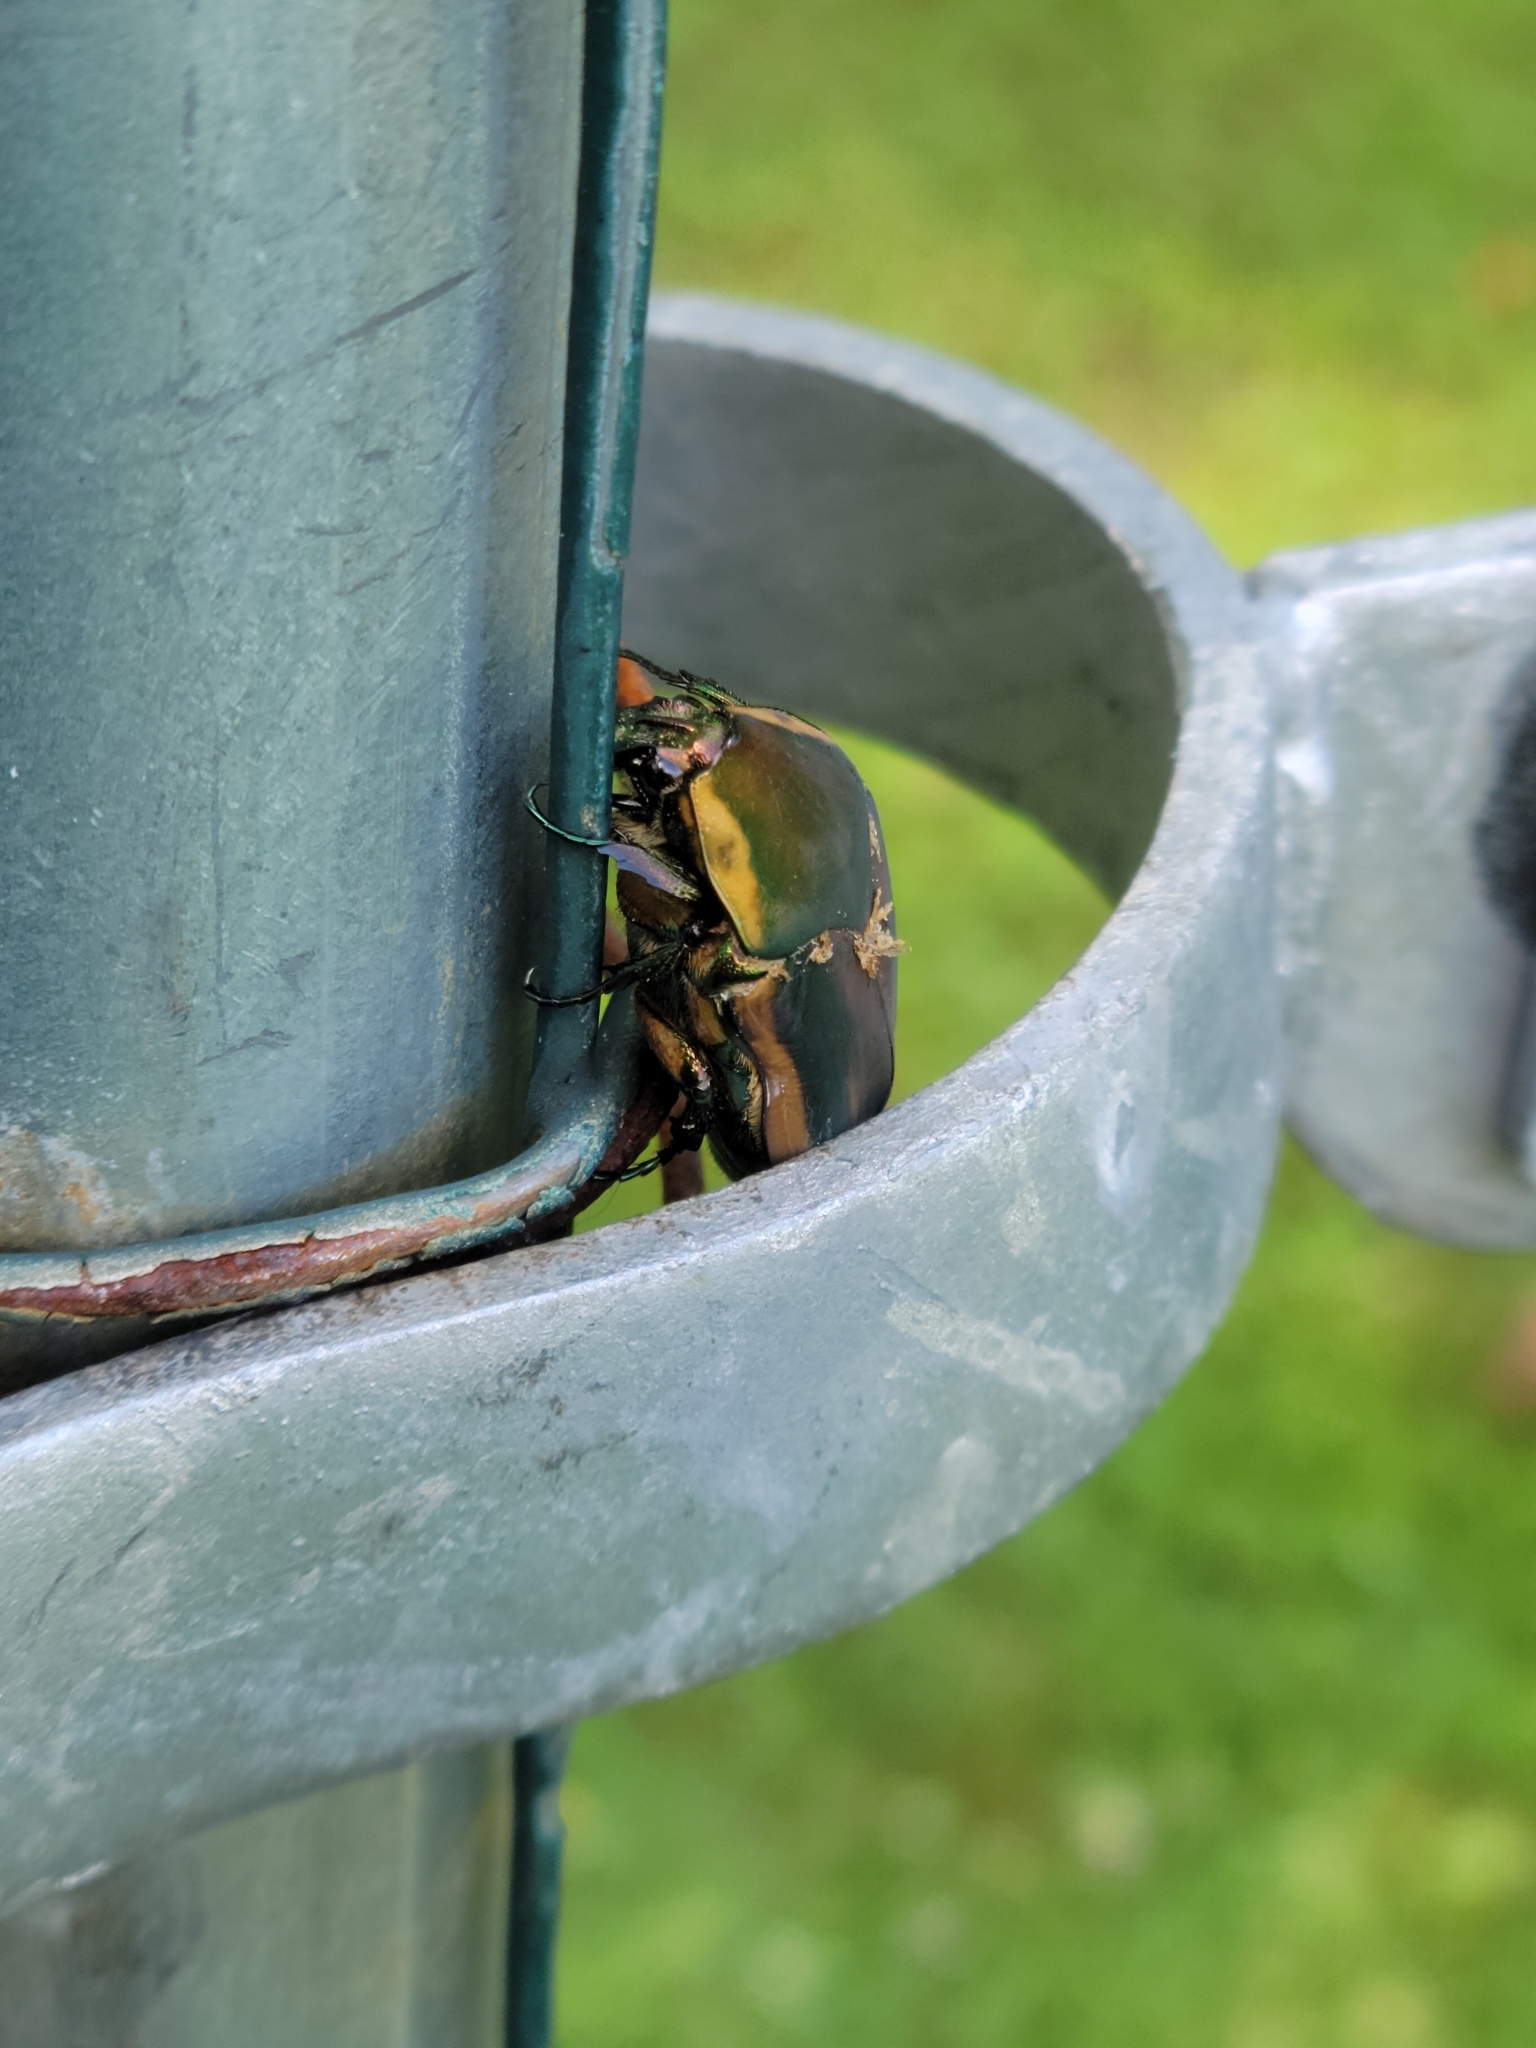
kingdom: Animalia
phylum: Arthropoda
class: Insecta
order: Coleoptera
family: Scarabaeidae
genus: Cotinis
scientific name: Cotinis nitida
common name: Common green june beetle
